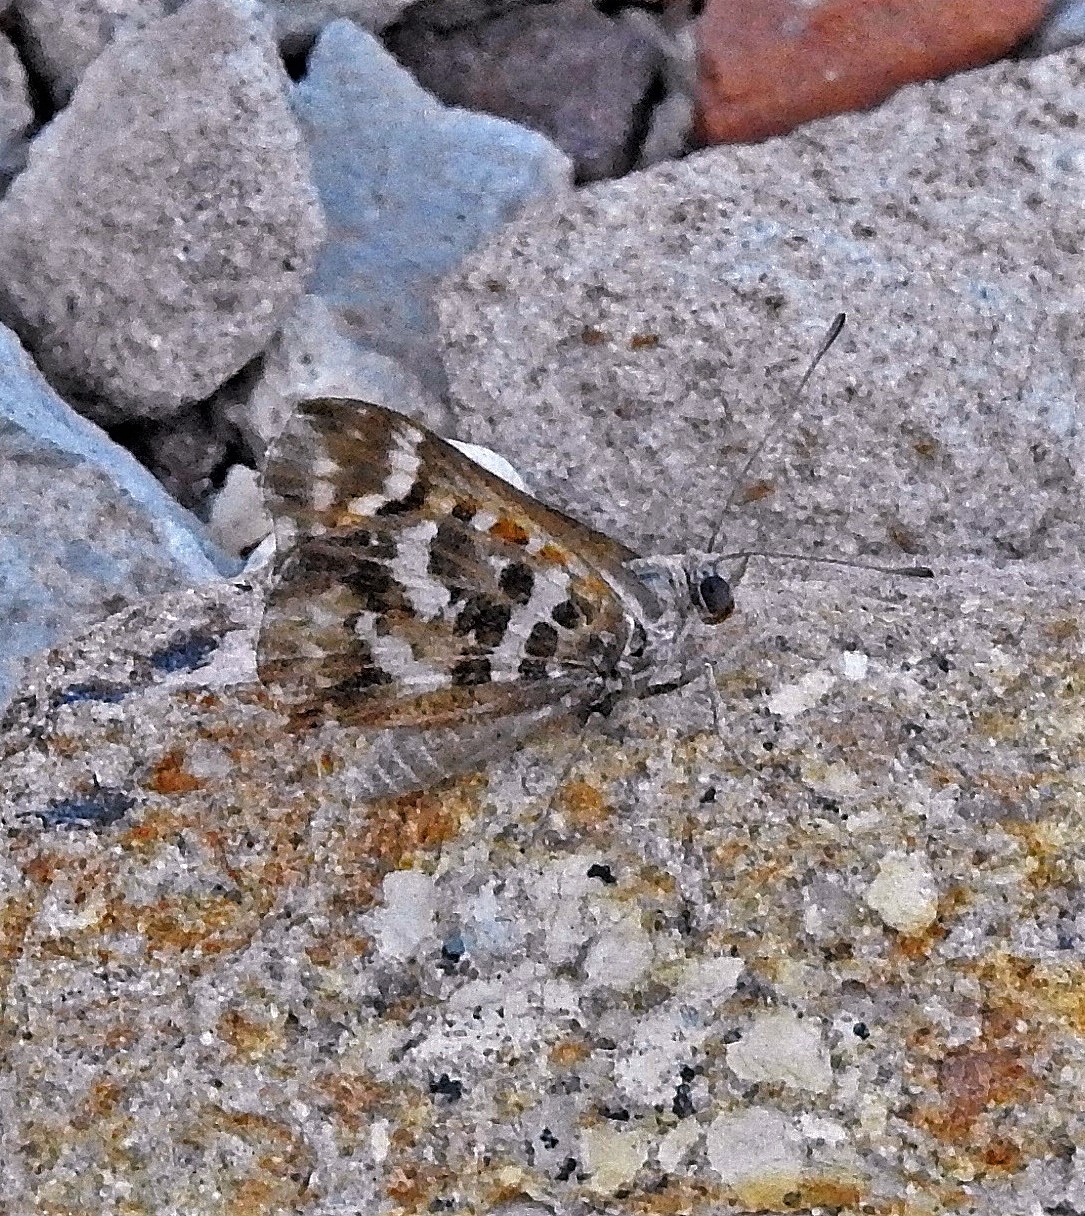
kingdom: Animalia
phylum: Arthropoda
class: Insecta
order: Lepidoptera
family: Lycaenidae
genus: Aricoris
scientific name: Aricoris chilensis
